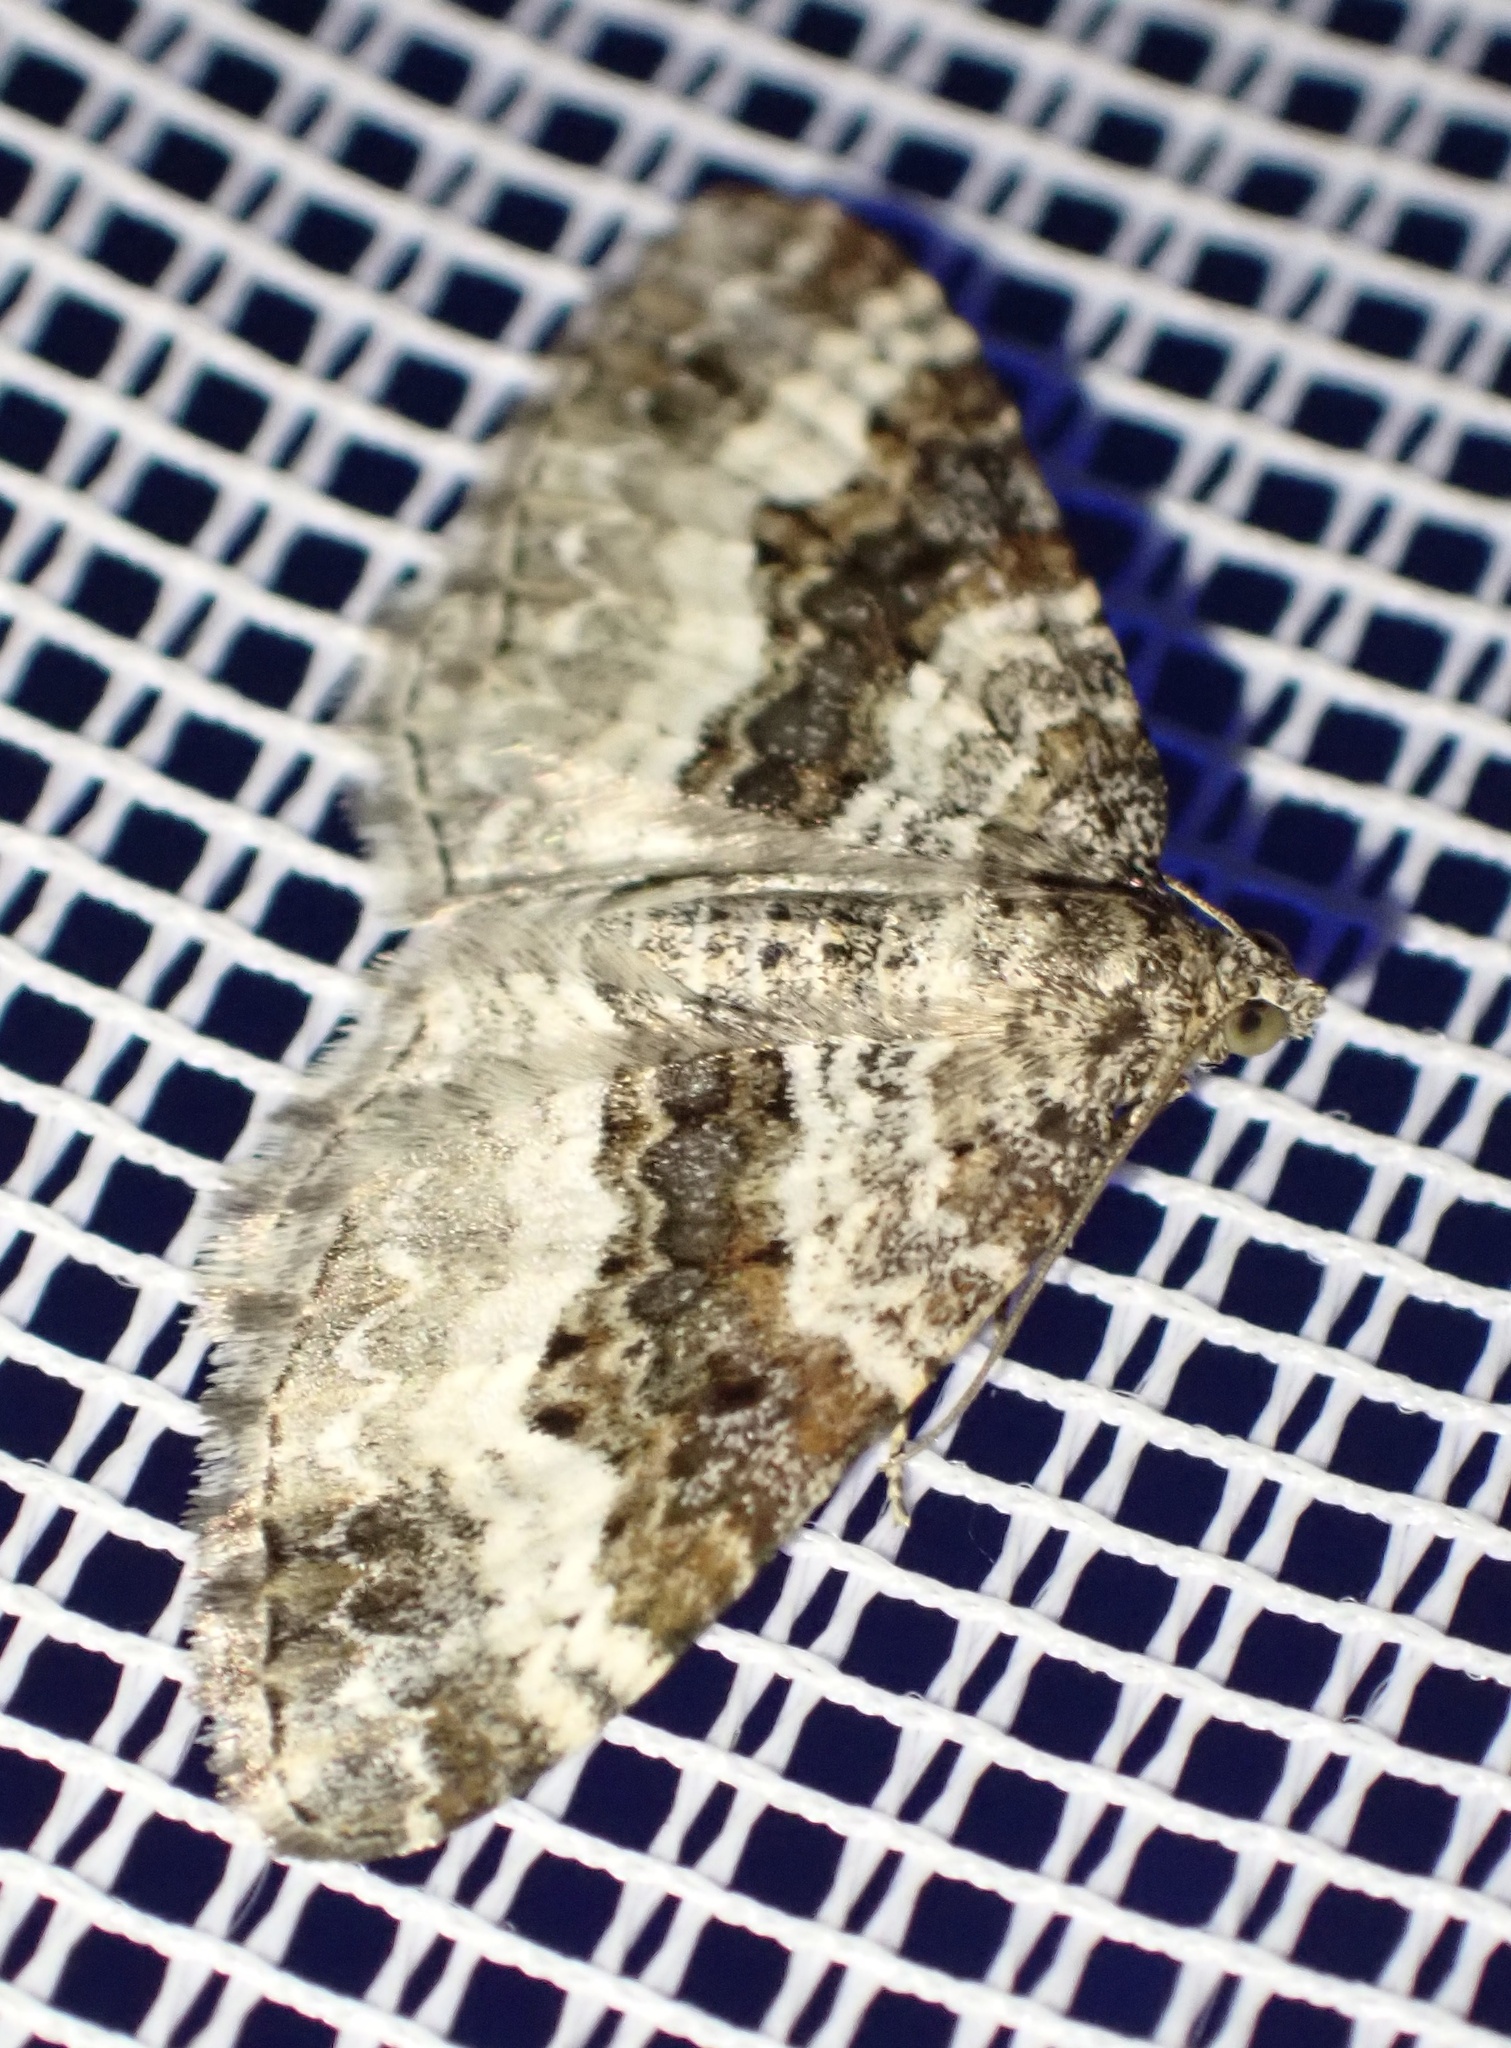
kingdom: Animalia
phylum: Arthropoda
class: Insecta
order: Lepidoptera
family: Geometridae
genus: Epirrhoe
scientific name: Epirrhoe alternata
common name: Common carpet
